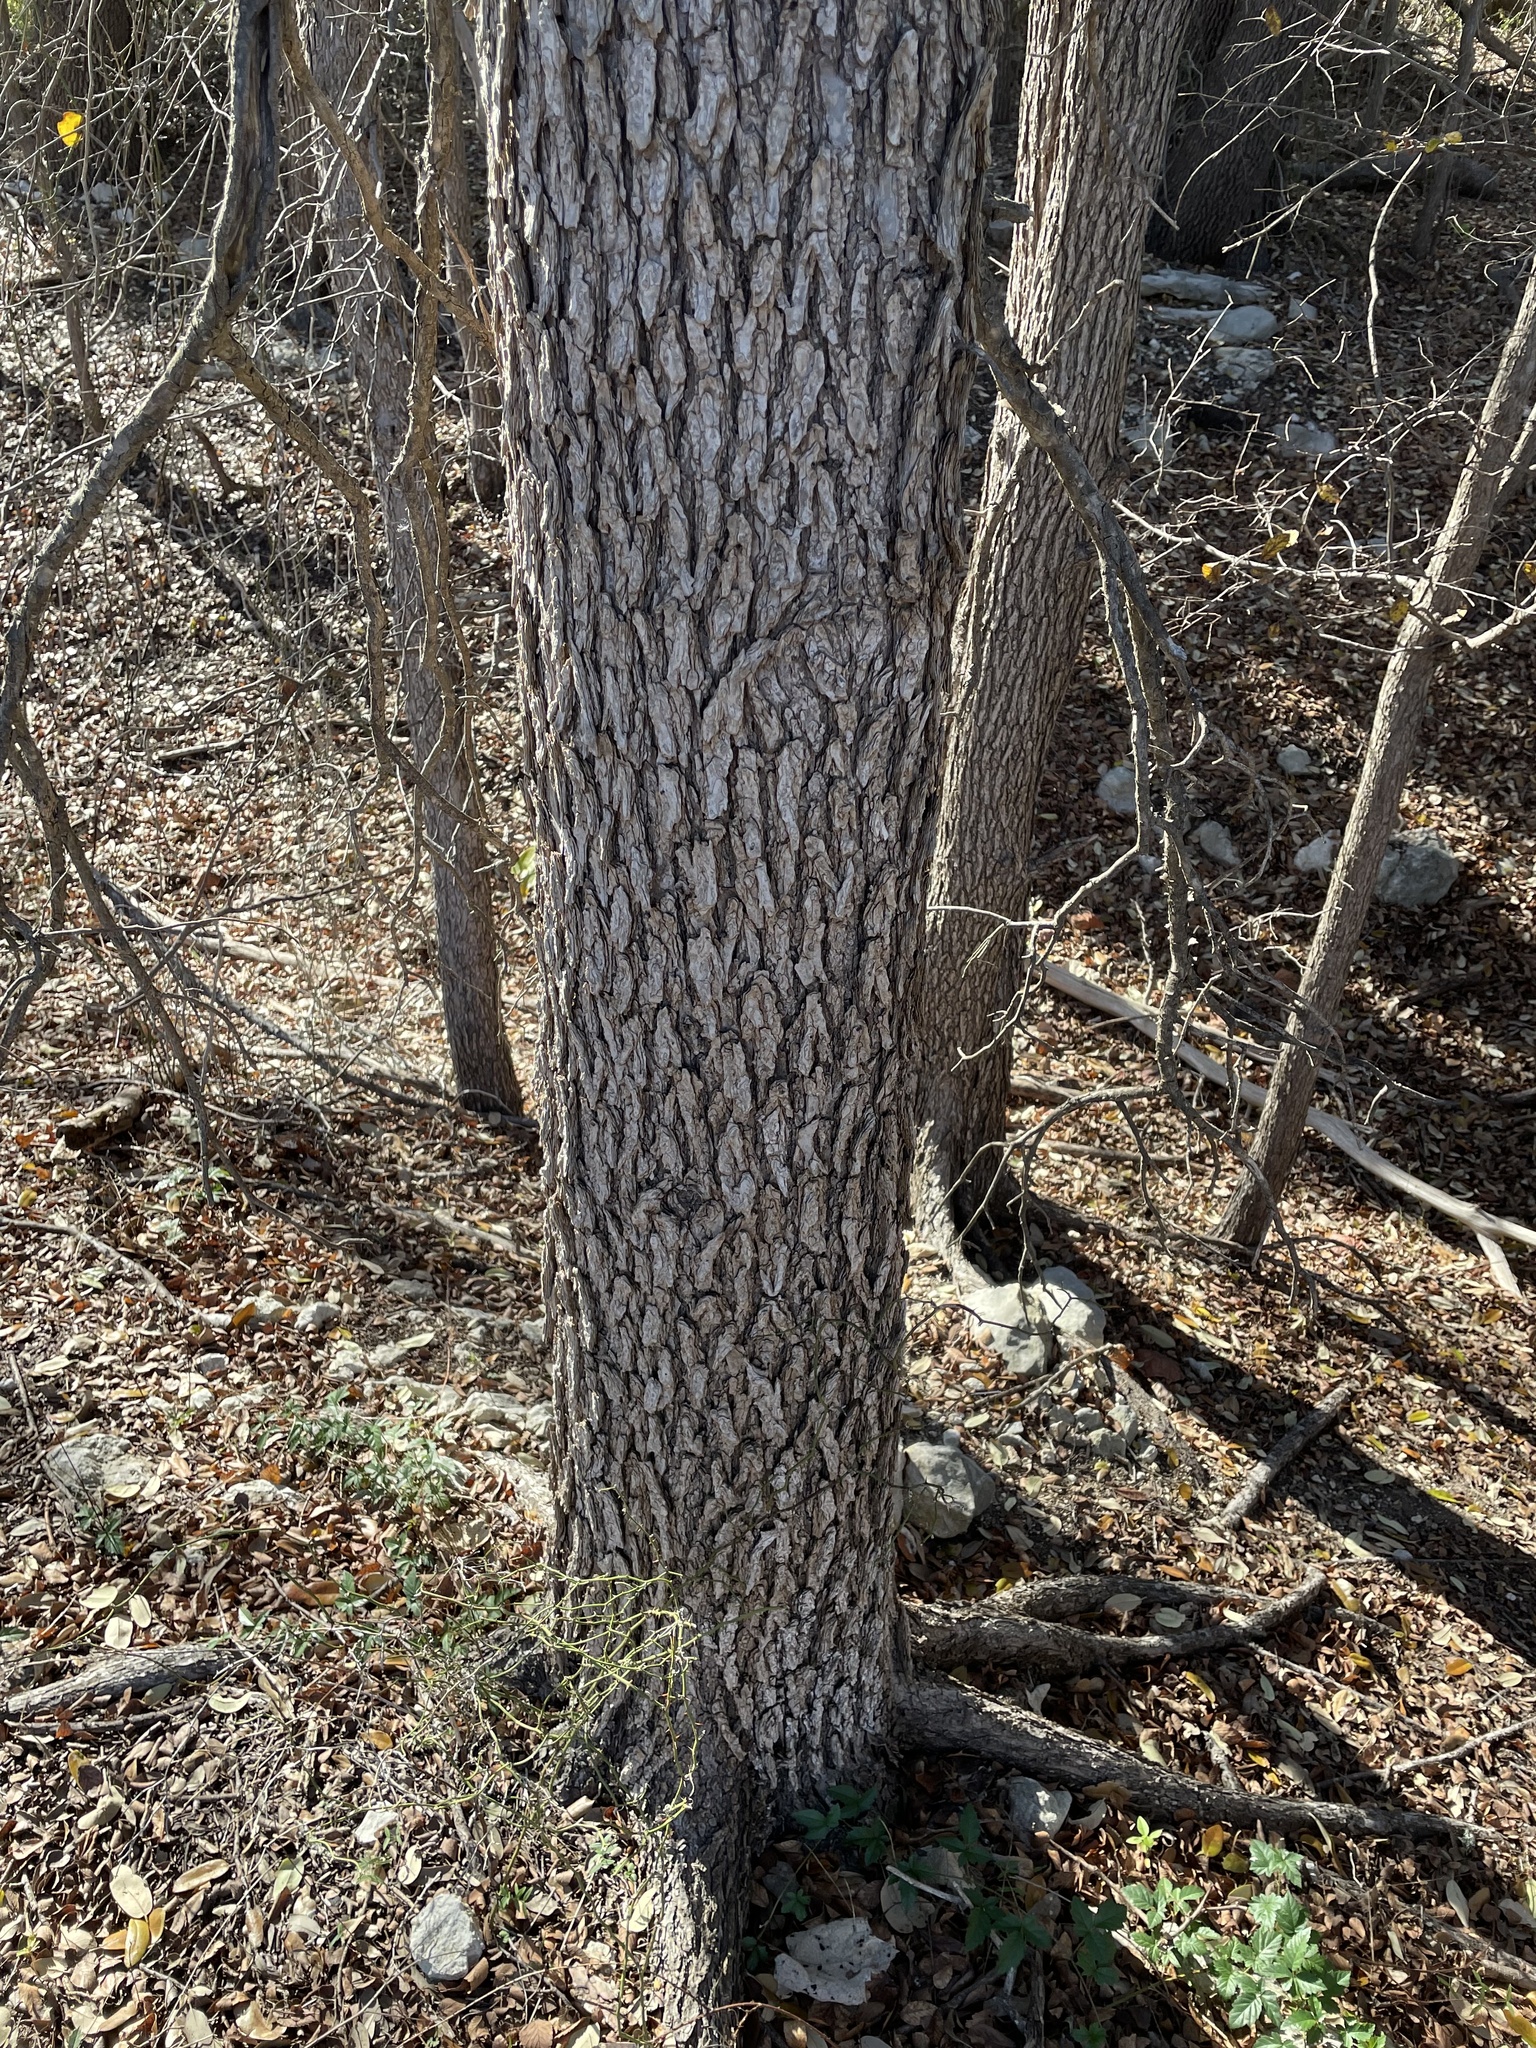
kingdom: Plantae
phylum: Tracheophyta
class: Magnoliopsida
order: Rosales
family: Ulmaceae
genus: Ulmus
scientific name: Ulmus crassifolia
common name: Basket elm
